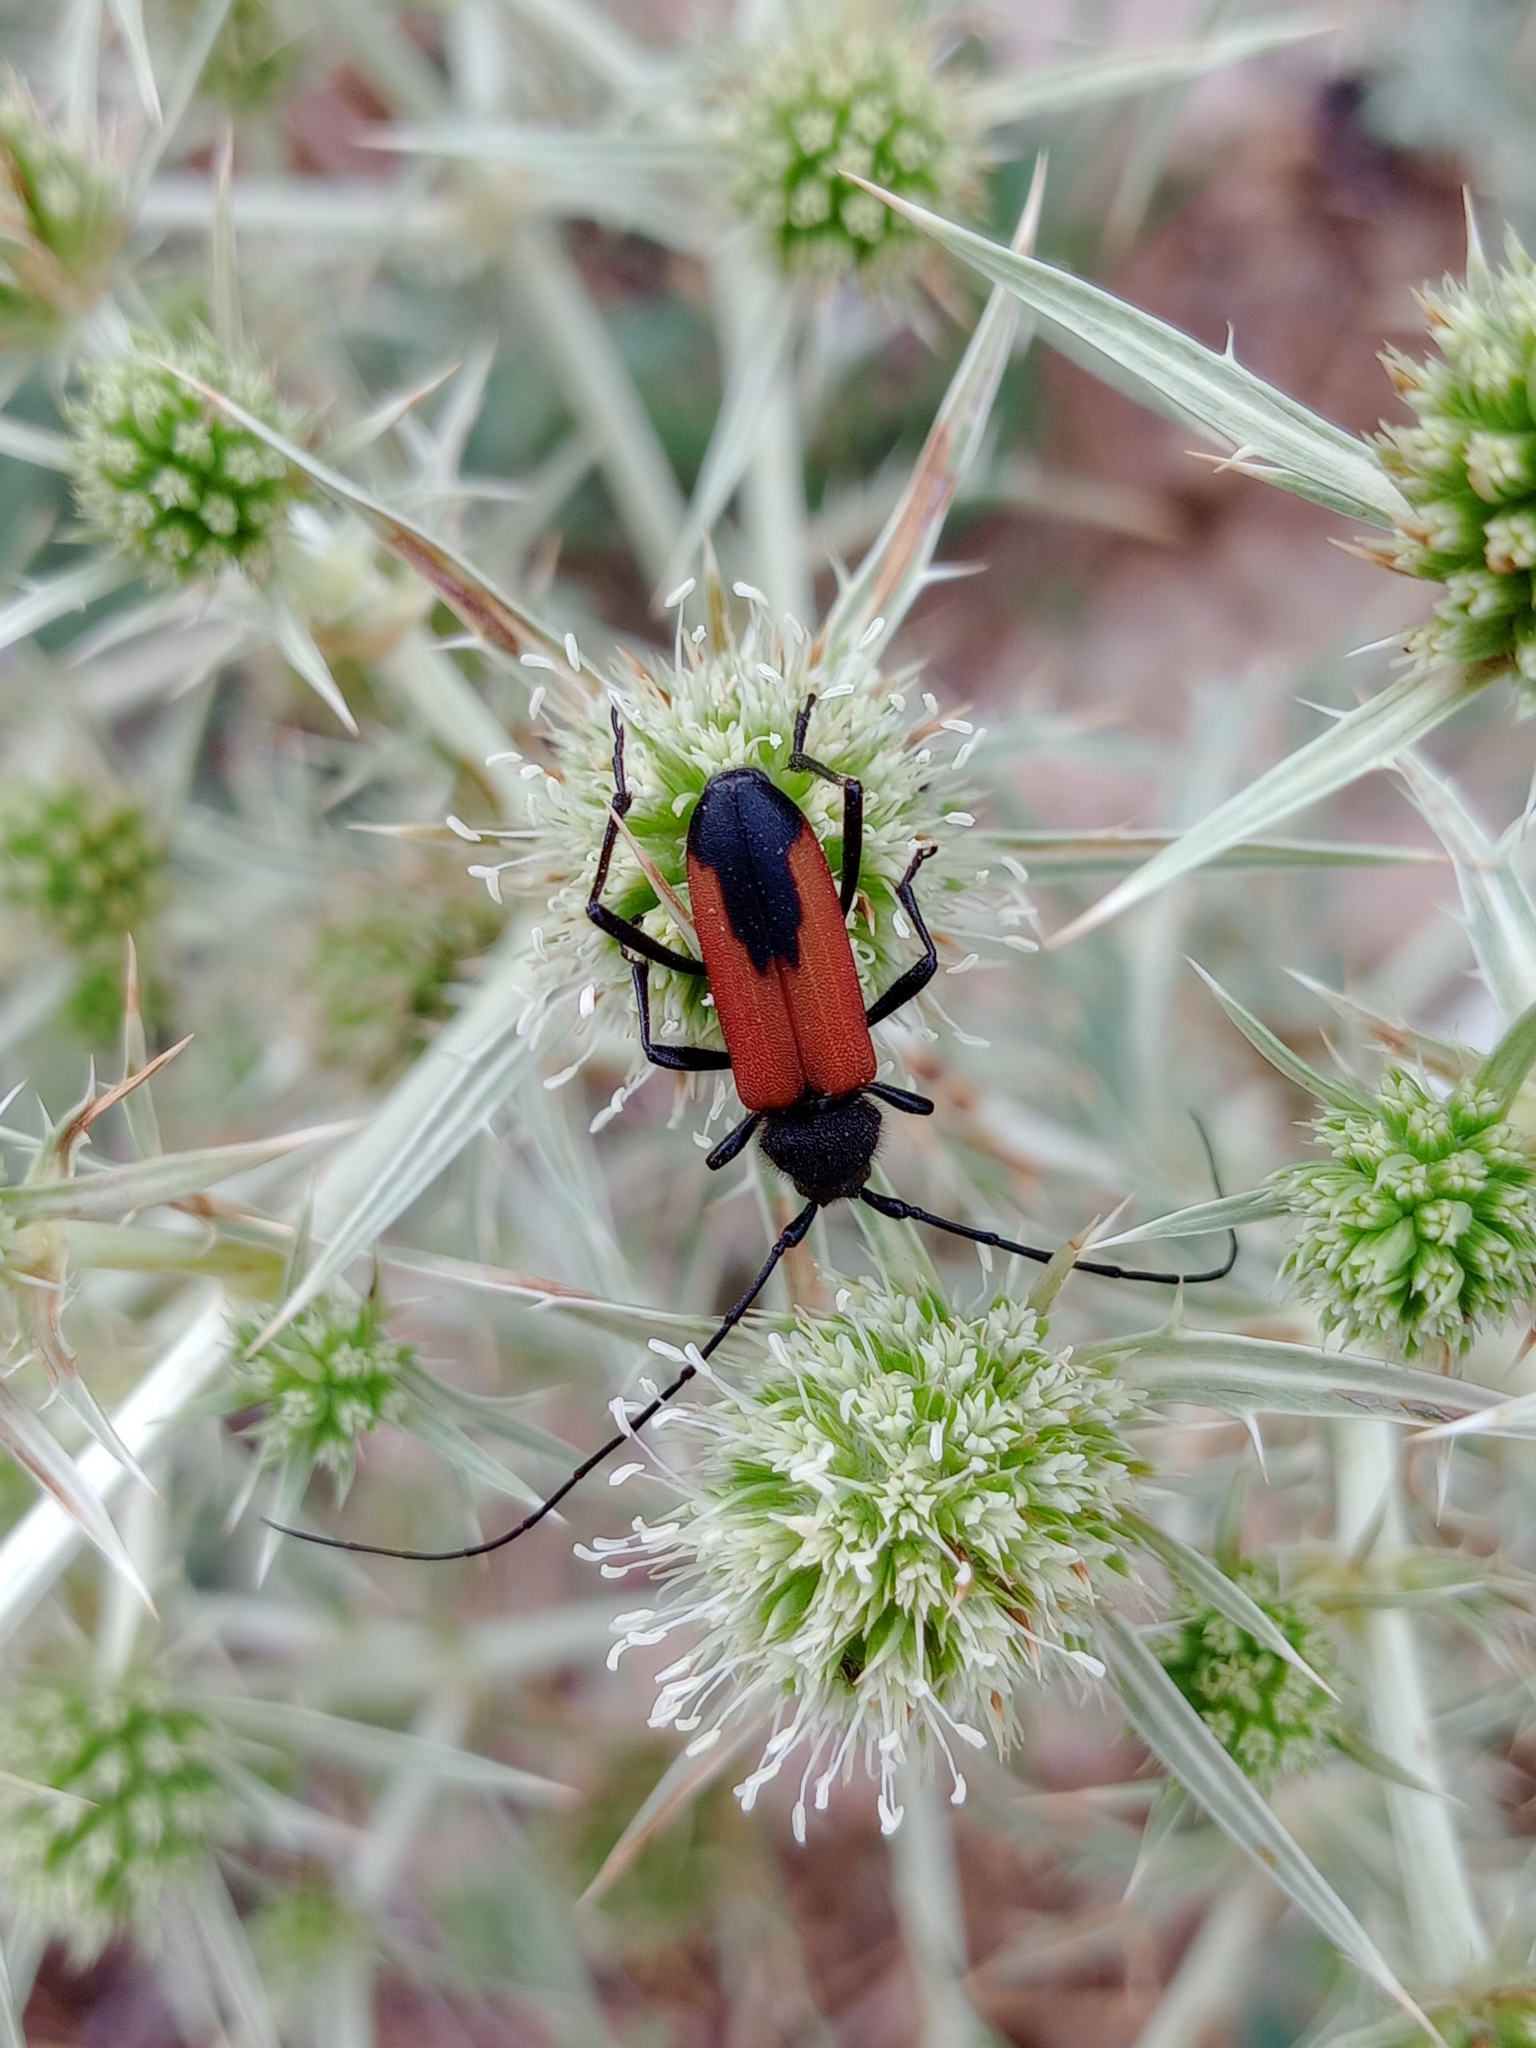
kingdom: Animalia
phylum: Arthropoda
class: Insecta
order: Coleoptera
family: Cerambycidae
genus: Purpuricenus
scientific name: Purpuricenus budensis
